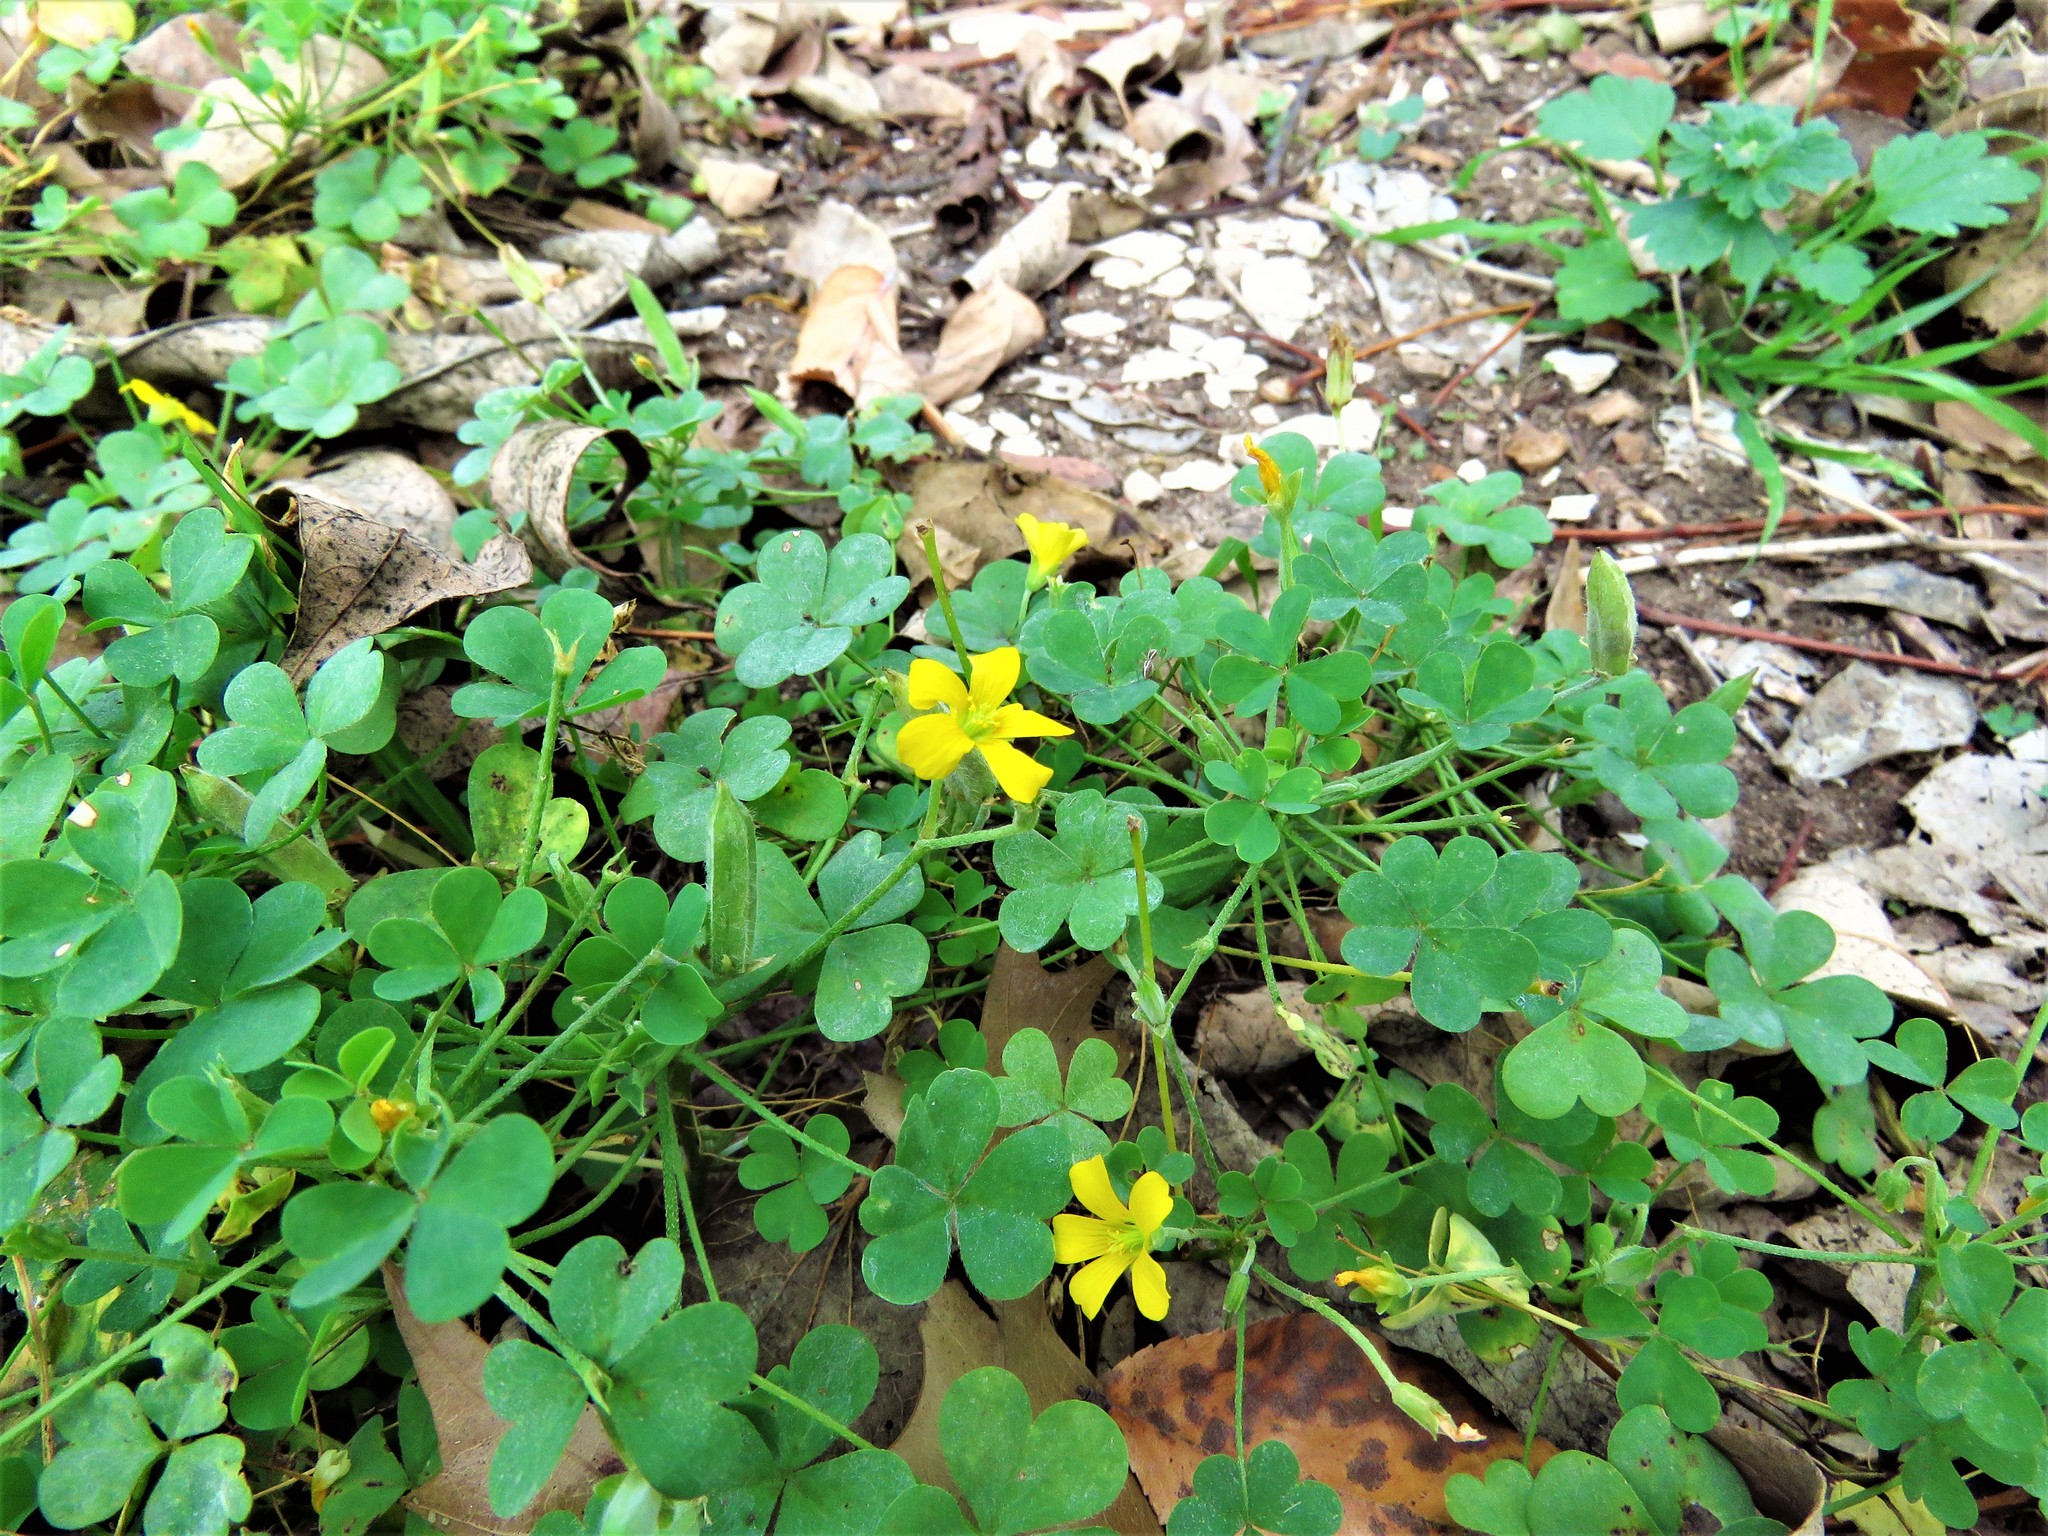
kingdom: Plantae
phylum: Tracheophyta
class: Magnoliopsida
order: Oxalidales
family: Oxalidaceae
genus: Oxalis
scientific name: Oxalis dillenii
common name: Sussex yellow-sorrel
